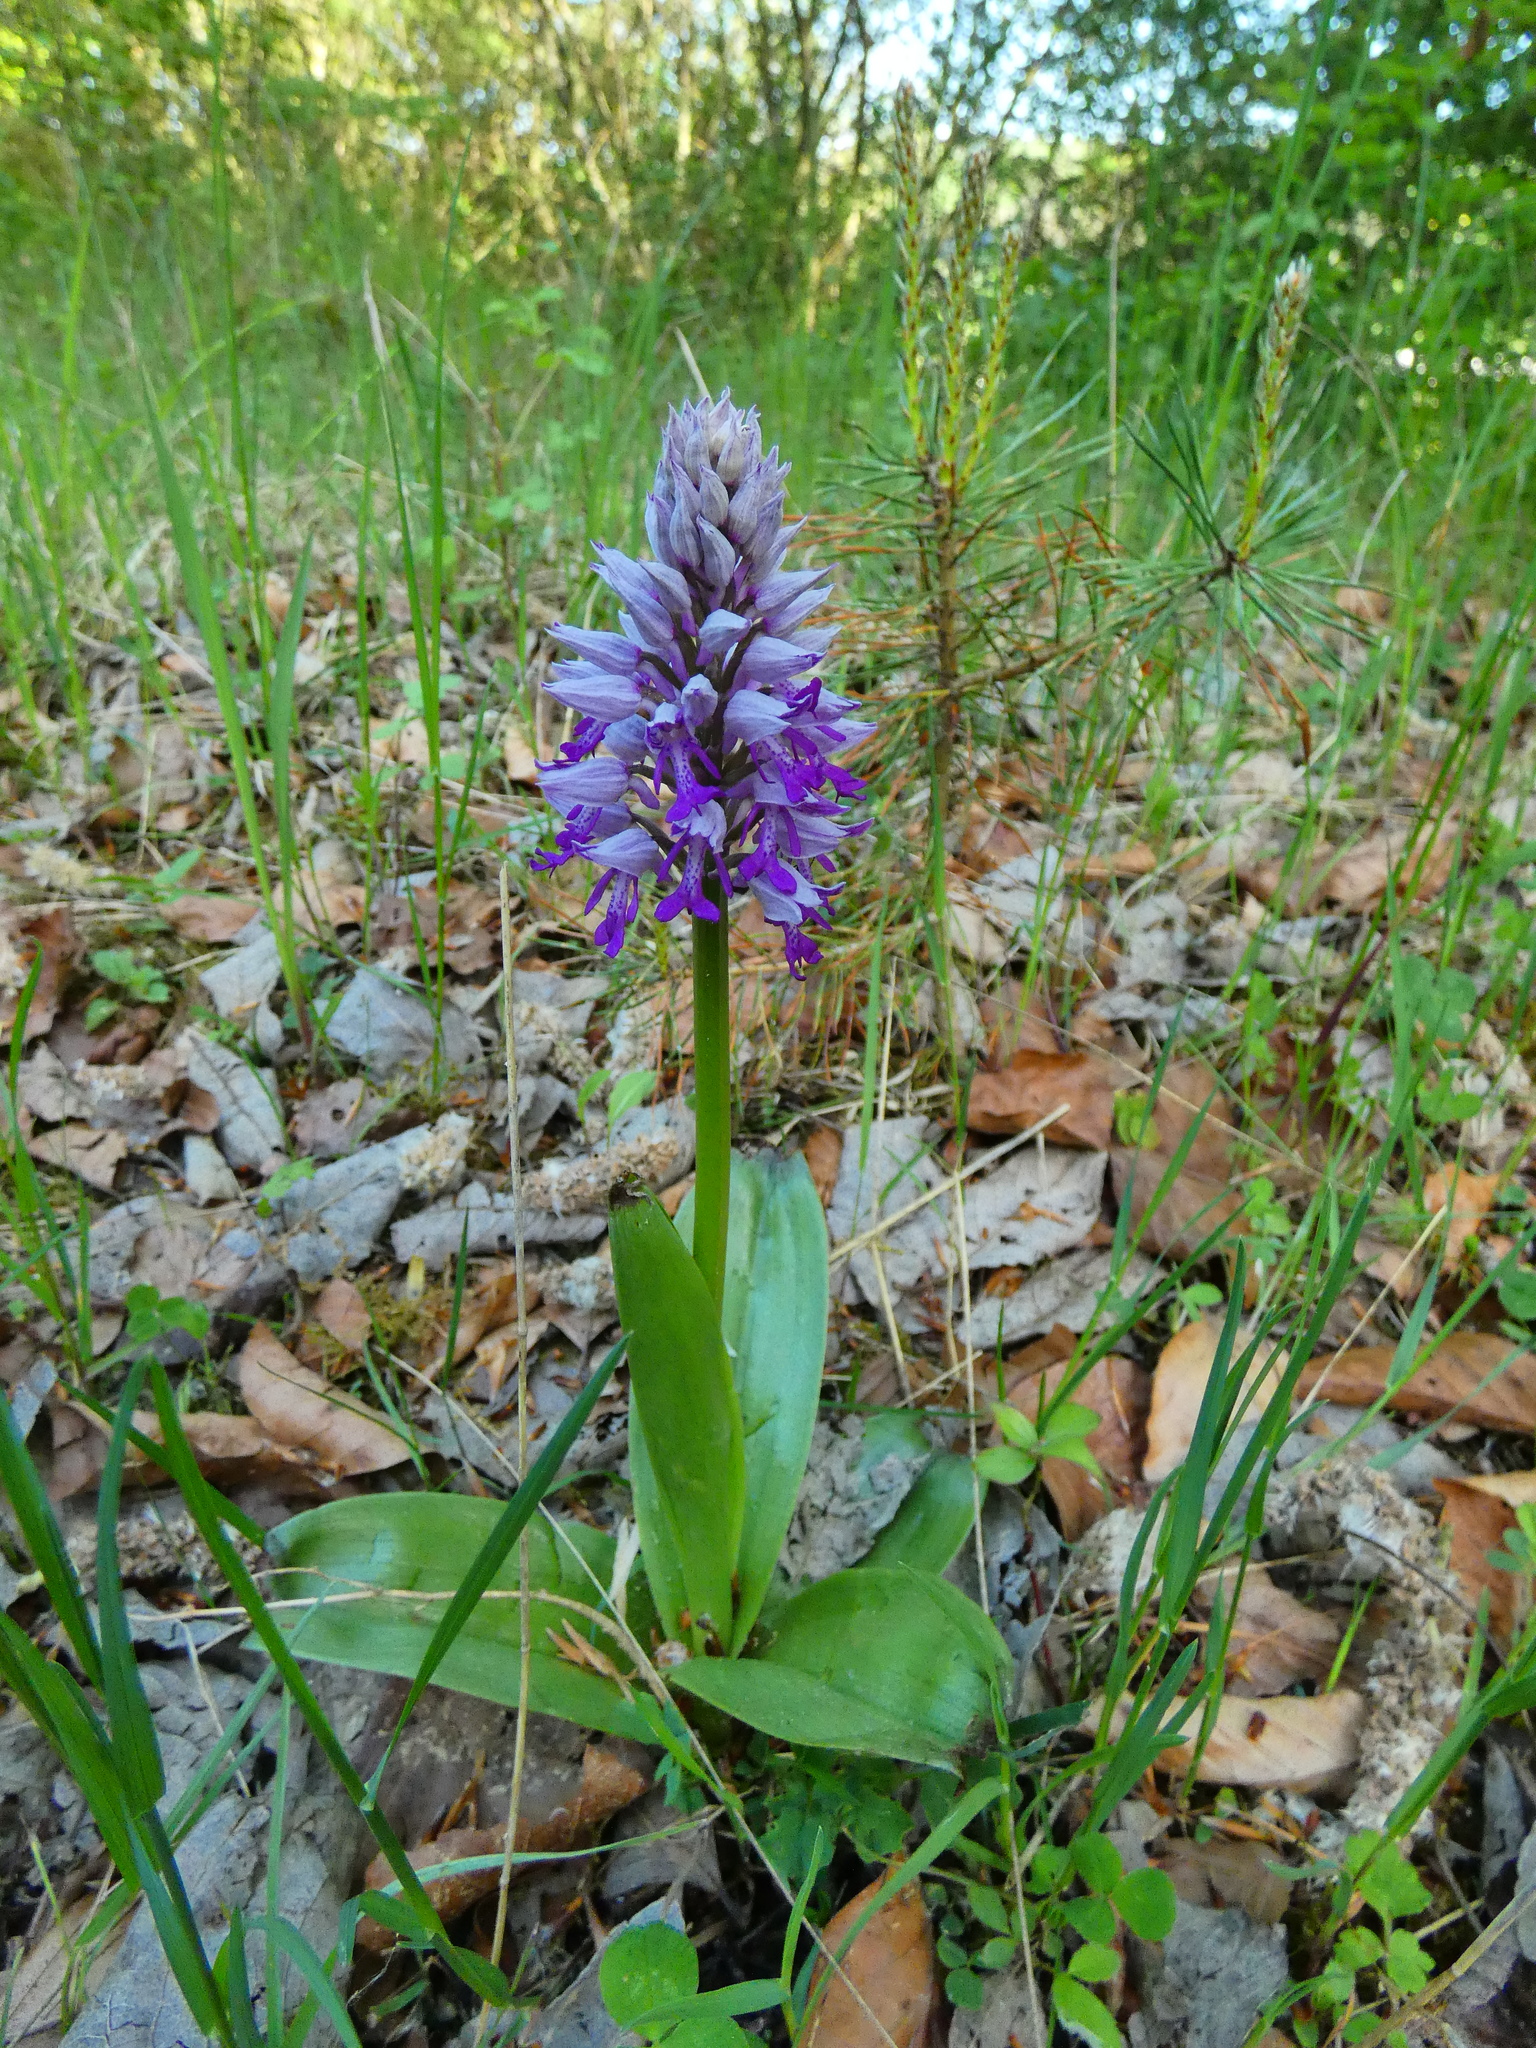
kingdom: Plantae
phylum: Tracheophyta
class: Liliopsida
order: Asparagales
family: Orchidaceae
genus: Orchis
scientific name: Orchis militaris
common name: Military orchid
